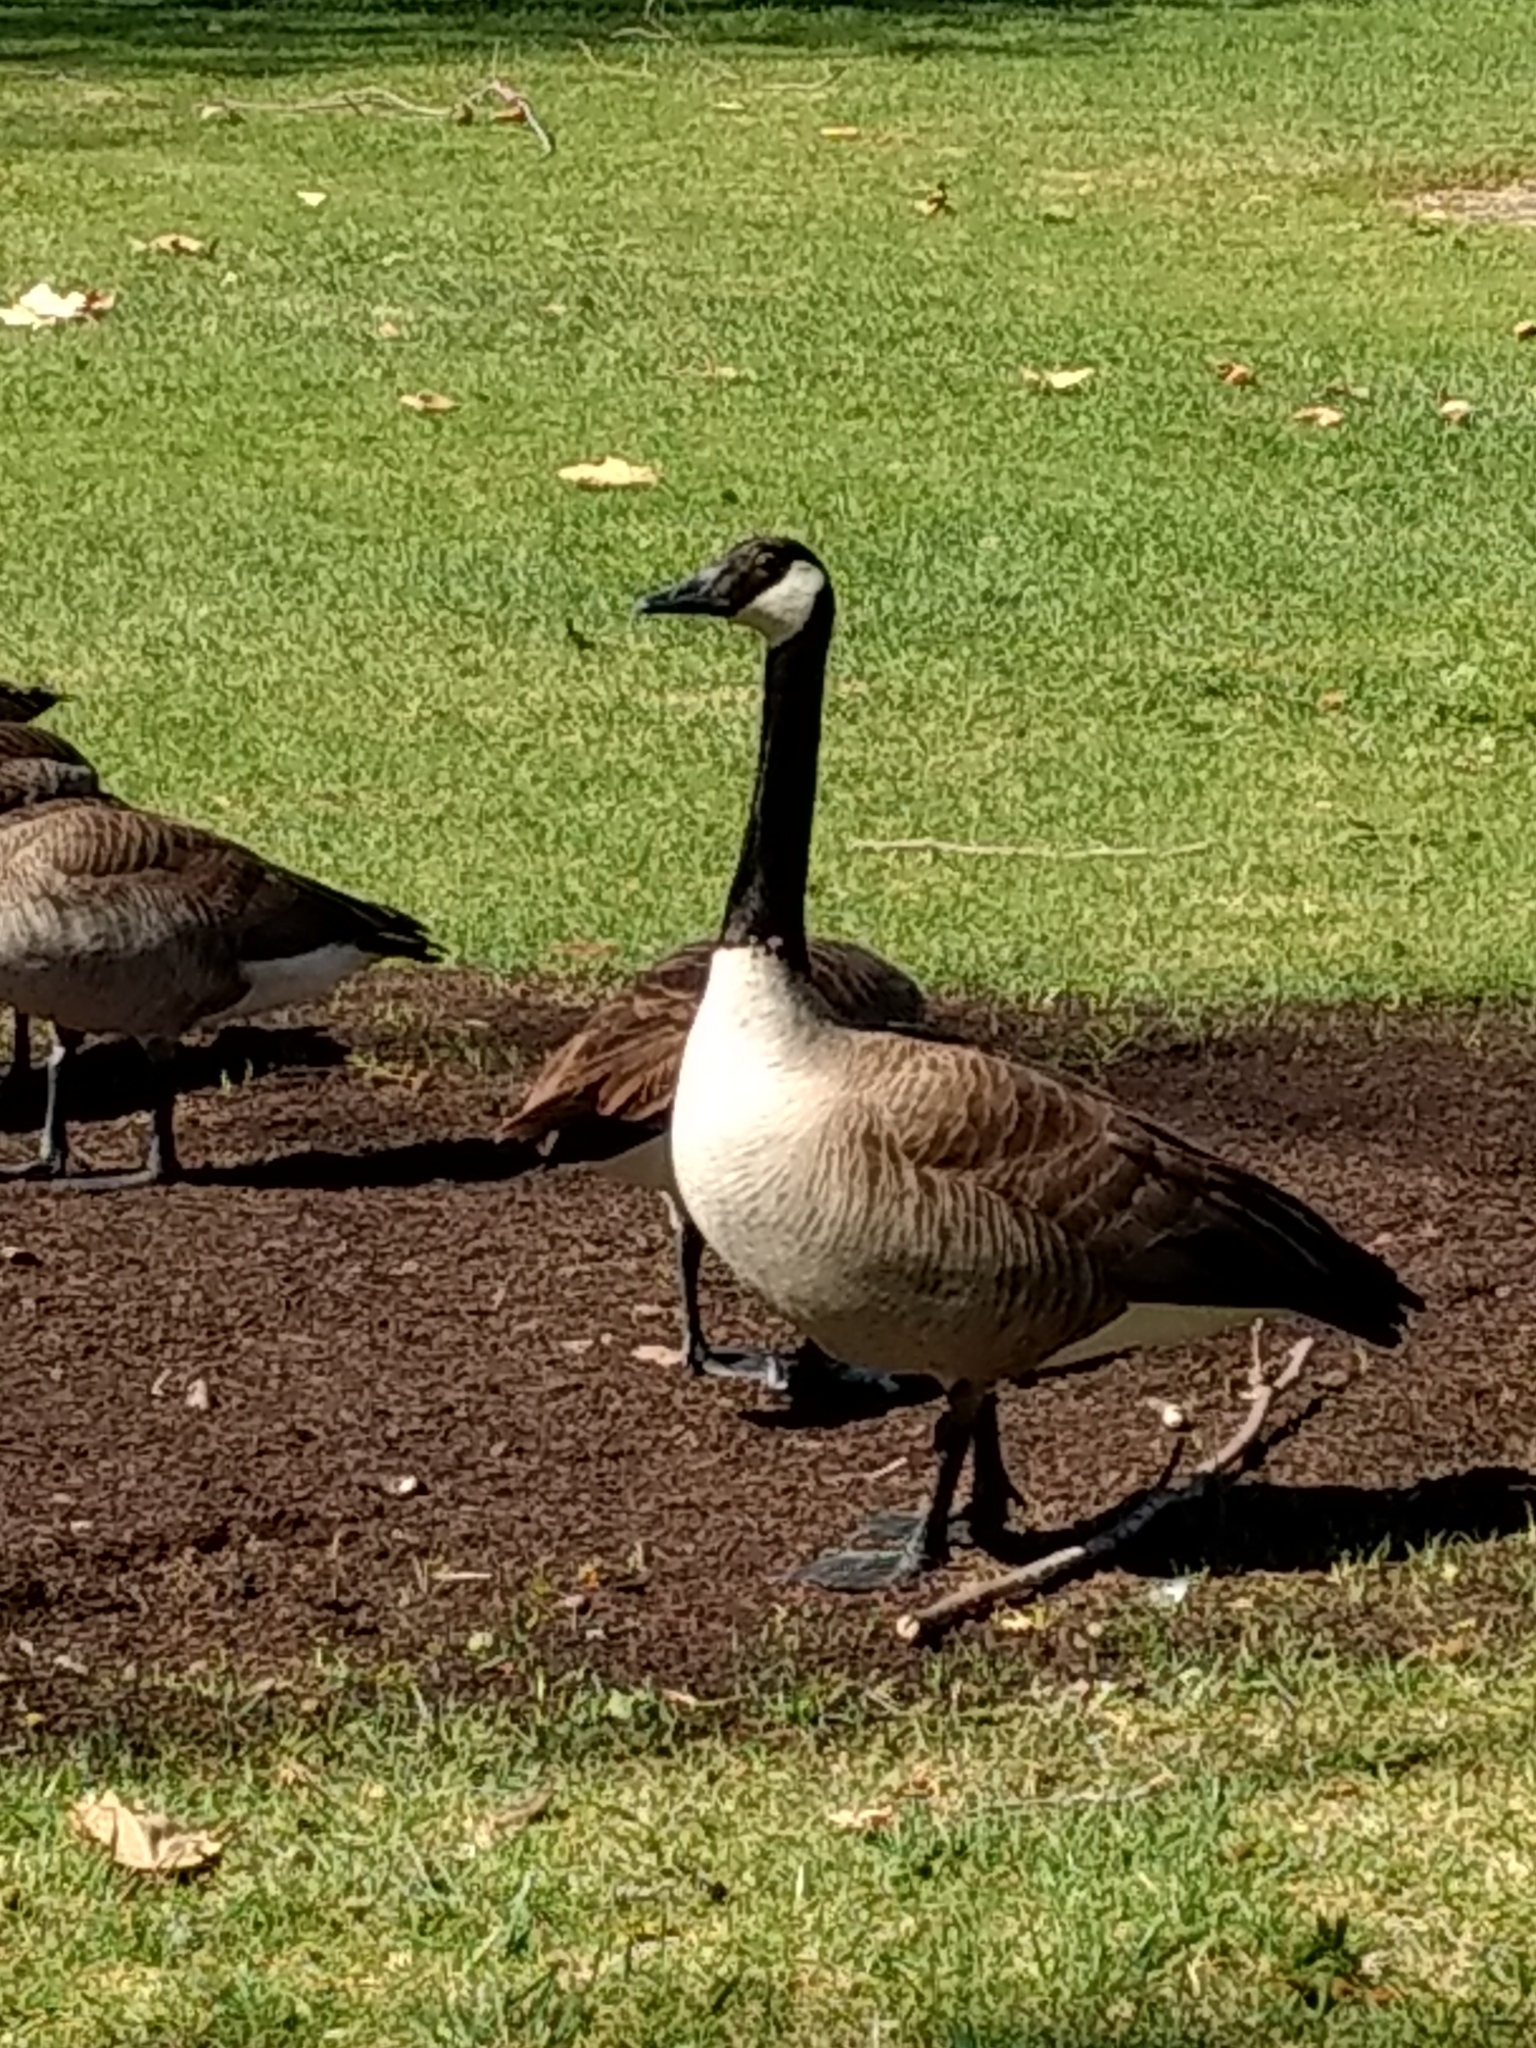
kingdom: Animalia
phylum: Chordata
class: Aves
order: Anseriformes
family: Anatidae
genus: Branta
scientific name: Branta canadensis
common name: Canada goose
